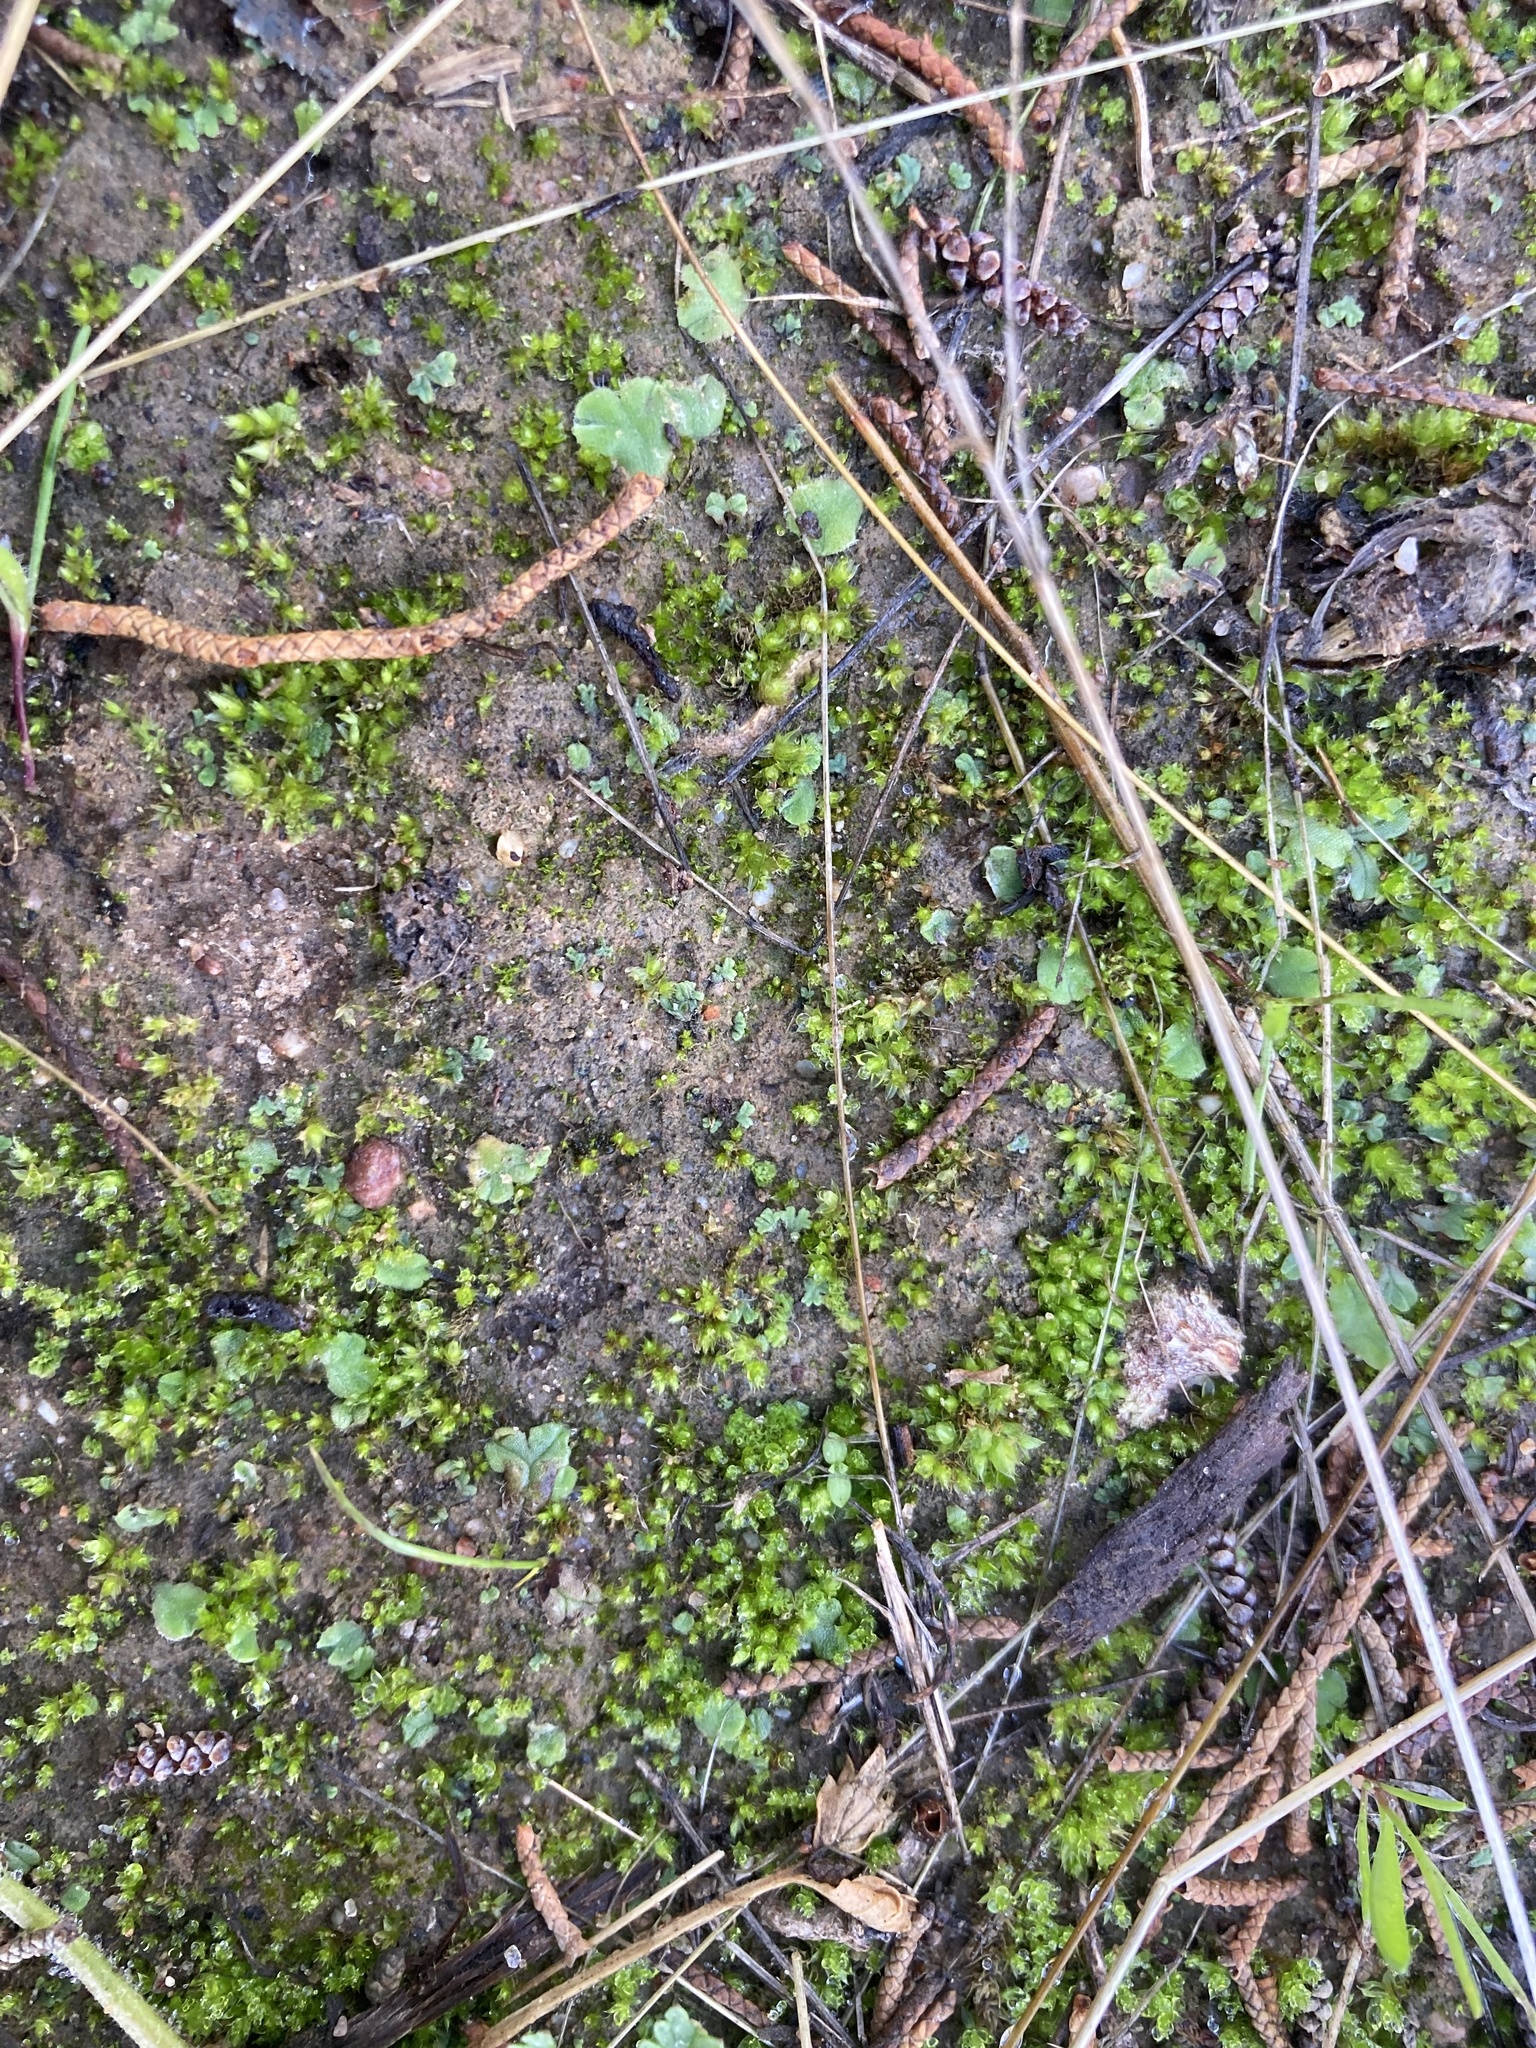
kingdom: Plantae
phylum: Marchantiophyta
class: Marchantiopsida
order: Marchantiales
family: Ricciaceae
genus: Oxymitra
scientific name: Oxymitra incrassata
